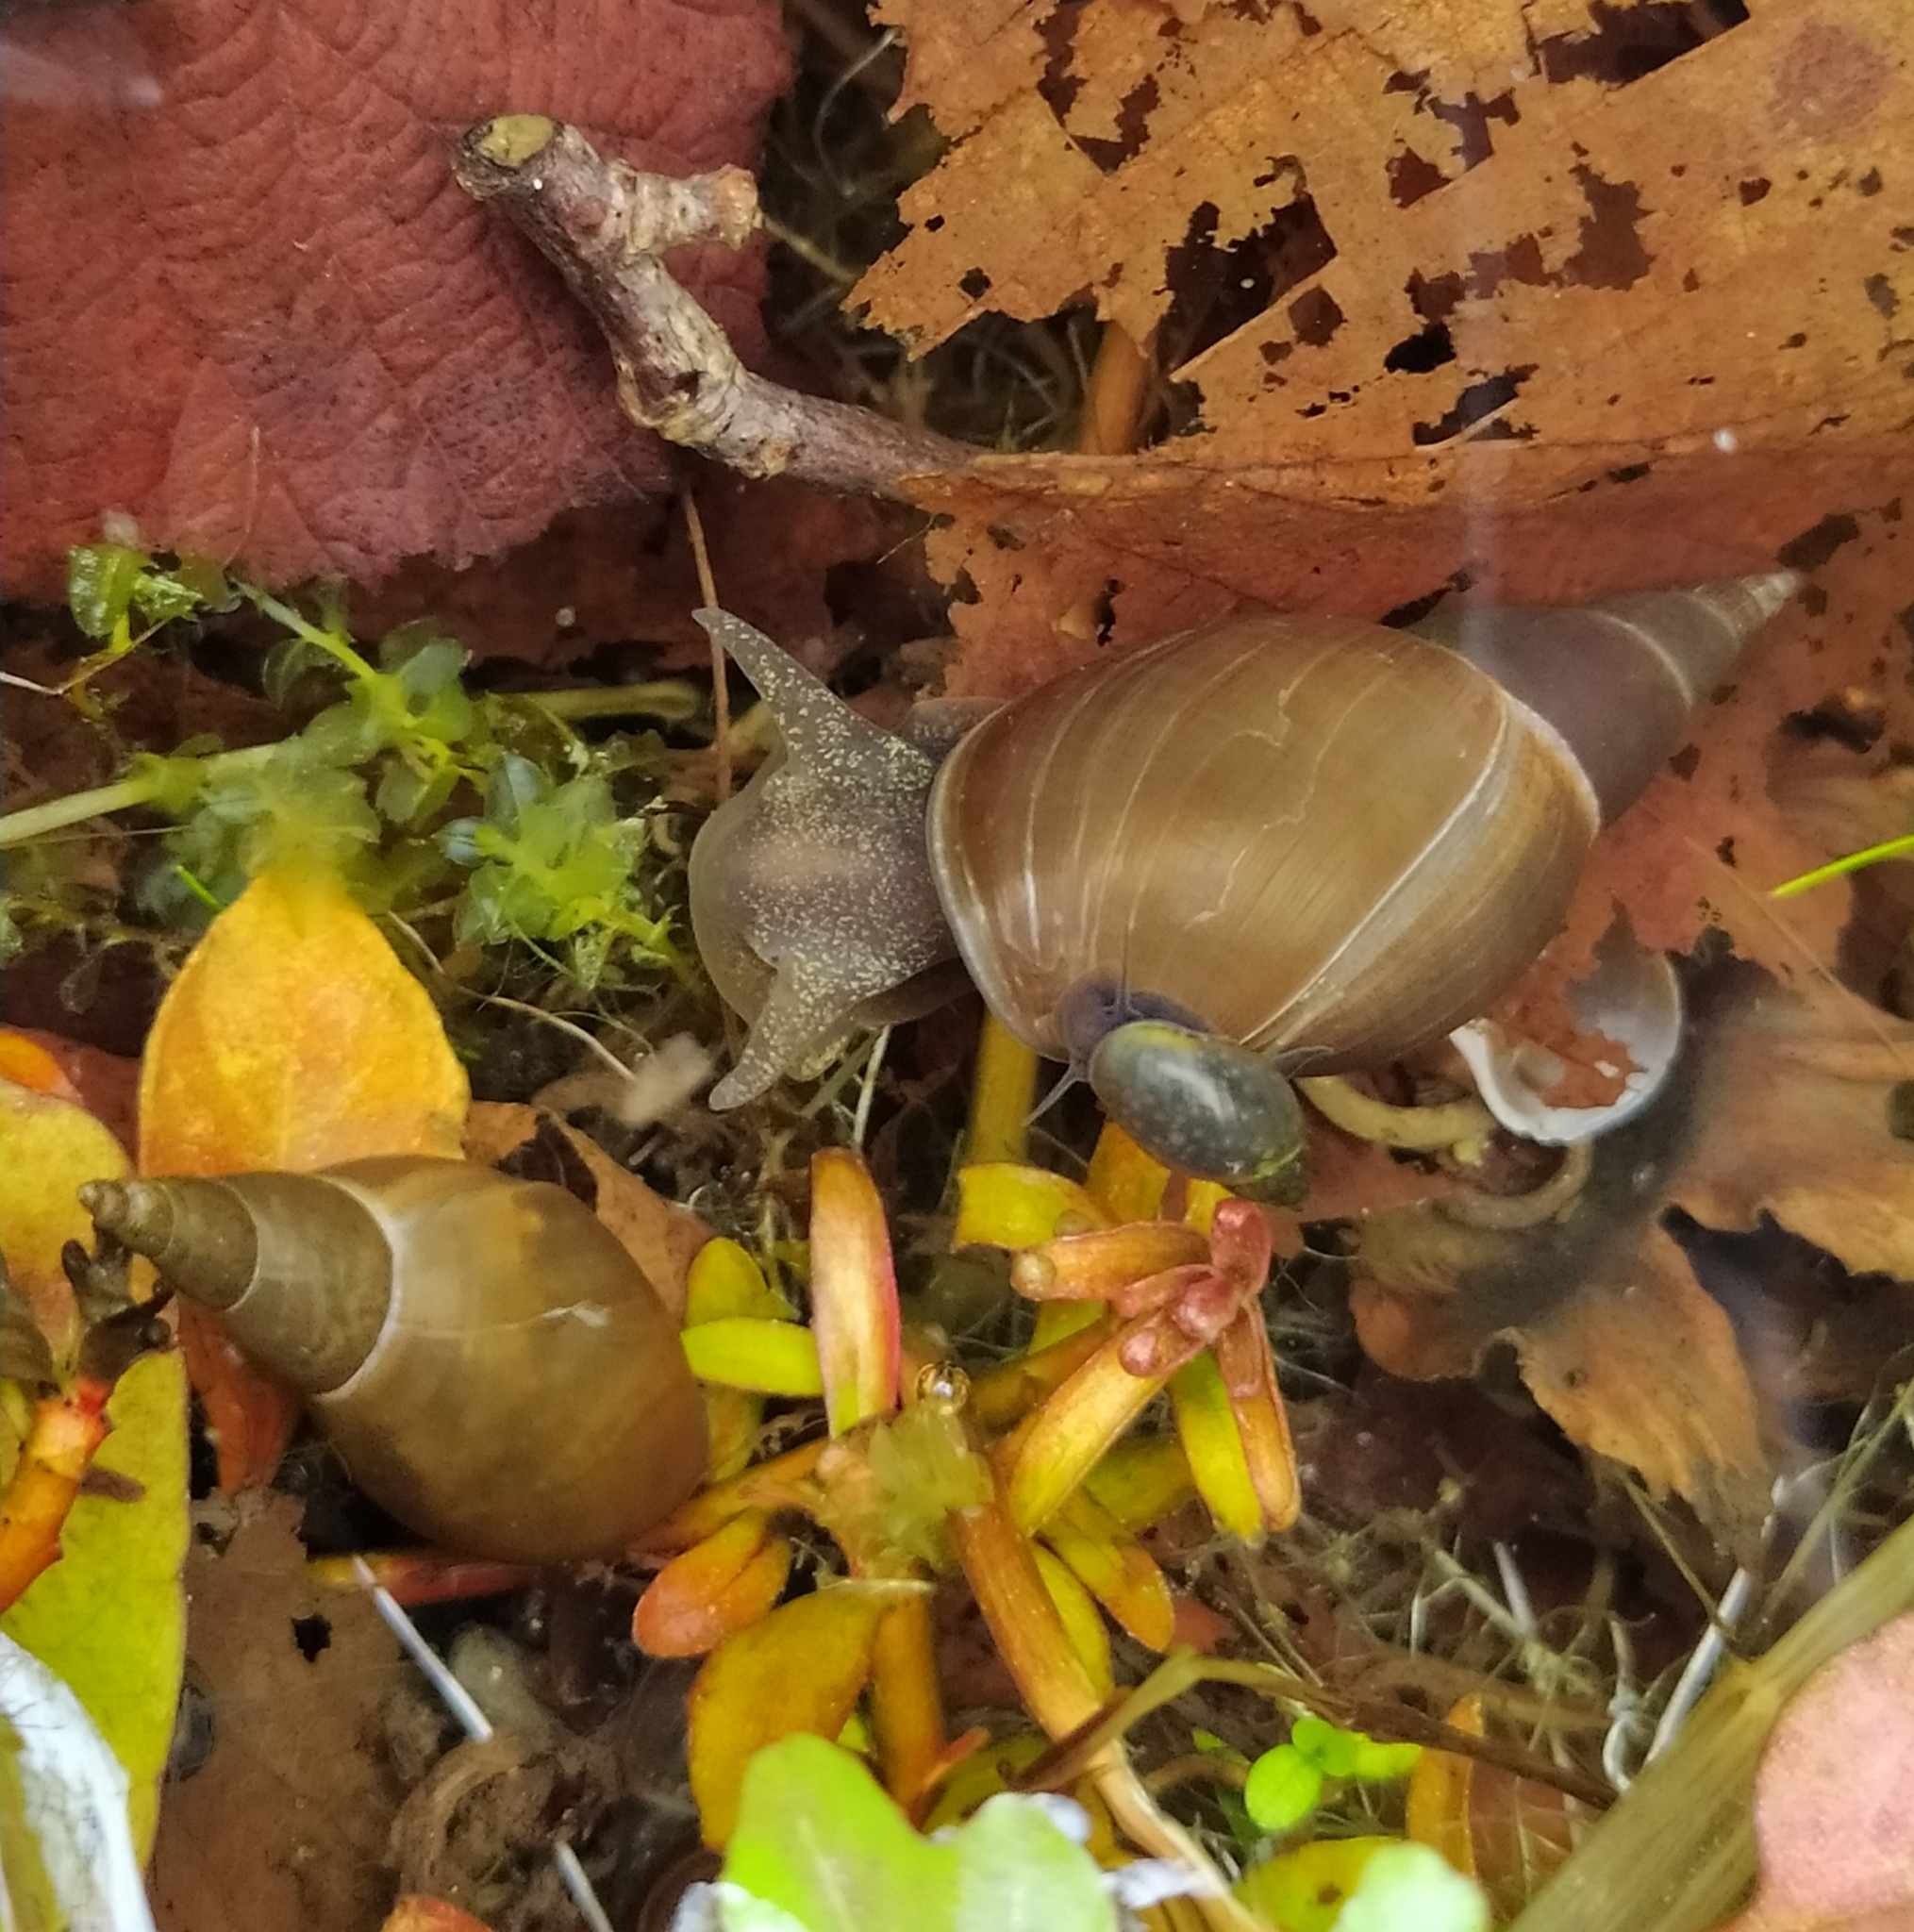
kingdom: Animalia
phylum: Mollusca
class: Gastropoda
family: Lymnaeidae
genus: Lymnaea
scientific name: Lymnaea stagnalis
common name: Great pond snail
